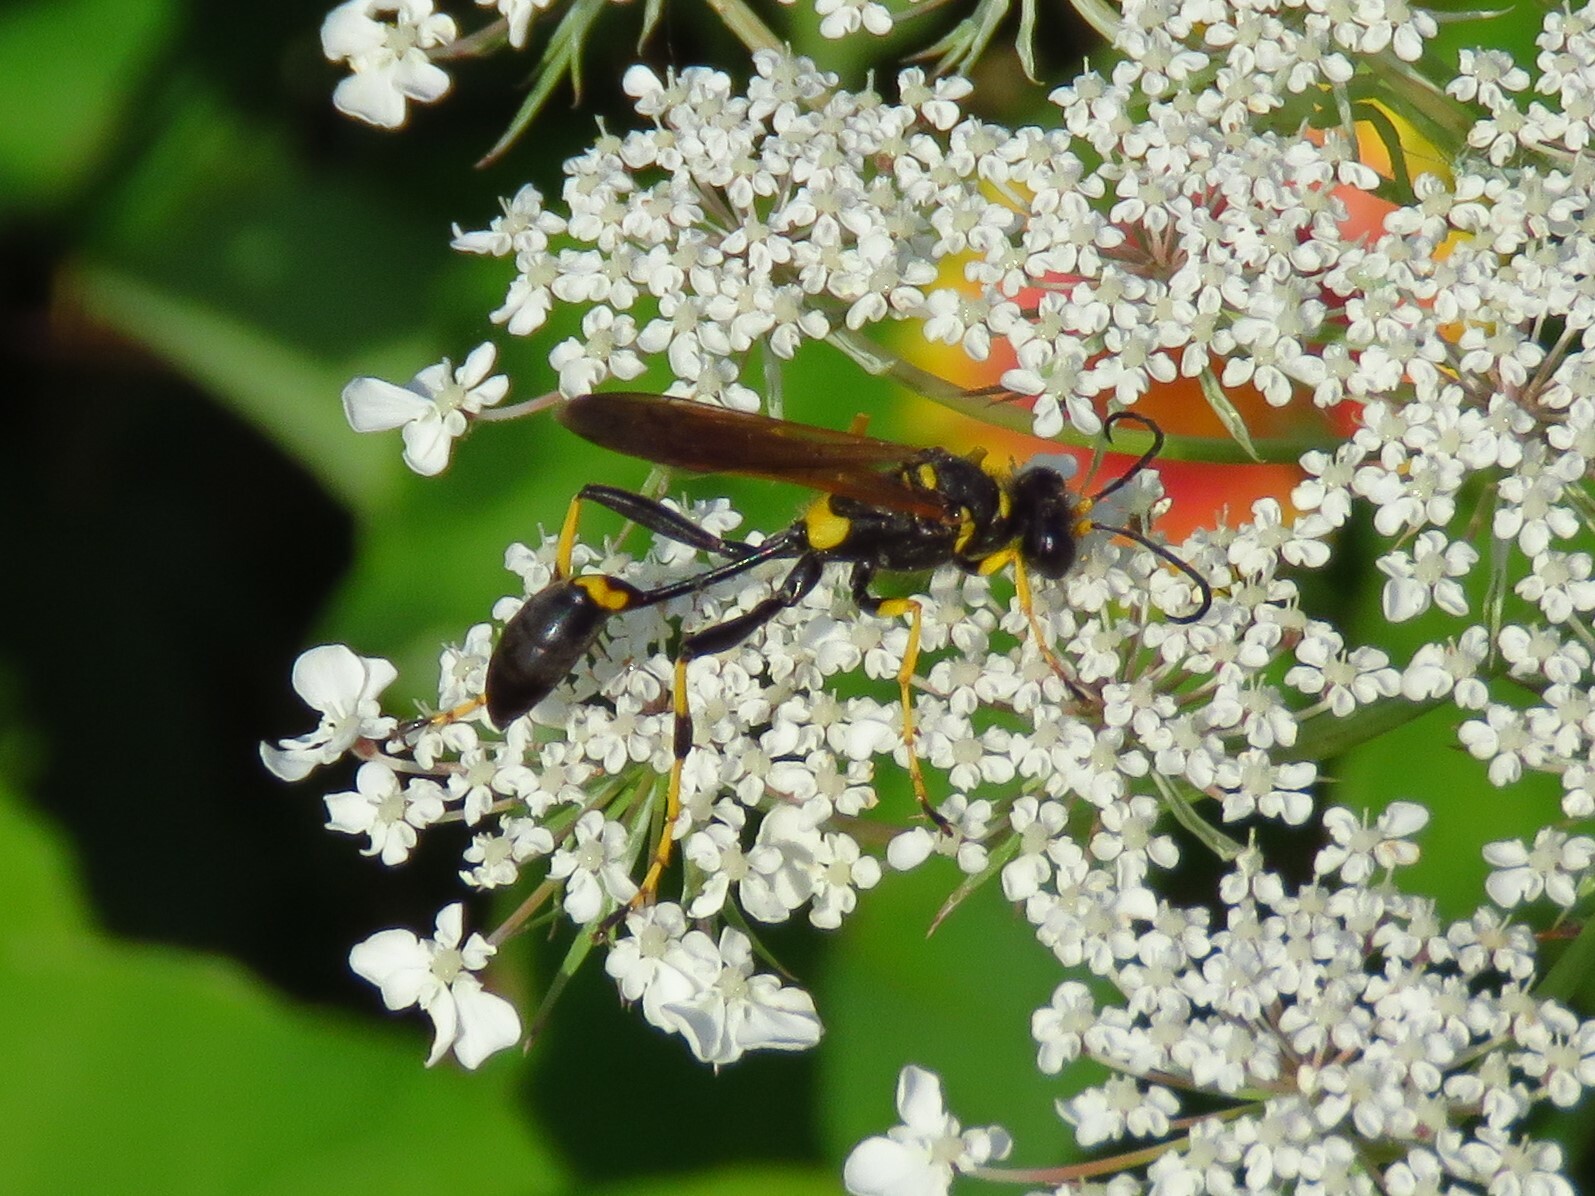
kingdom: Animalia
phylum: Arthropoda
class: Insecta
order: Hymenoptera
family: Sphecidae
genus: Sceliphron
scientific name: Sceliphron caementarium
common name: Mud dauber
